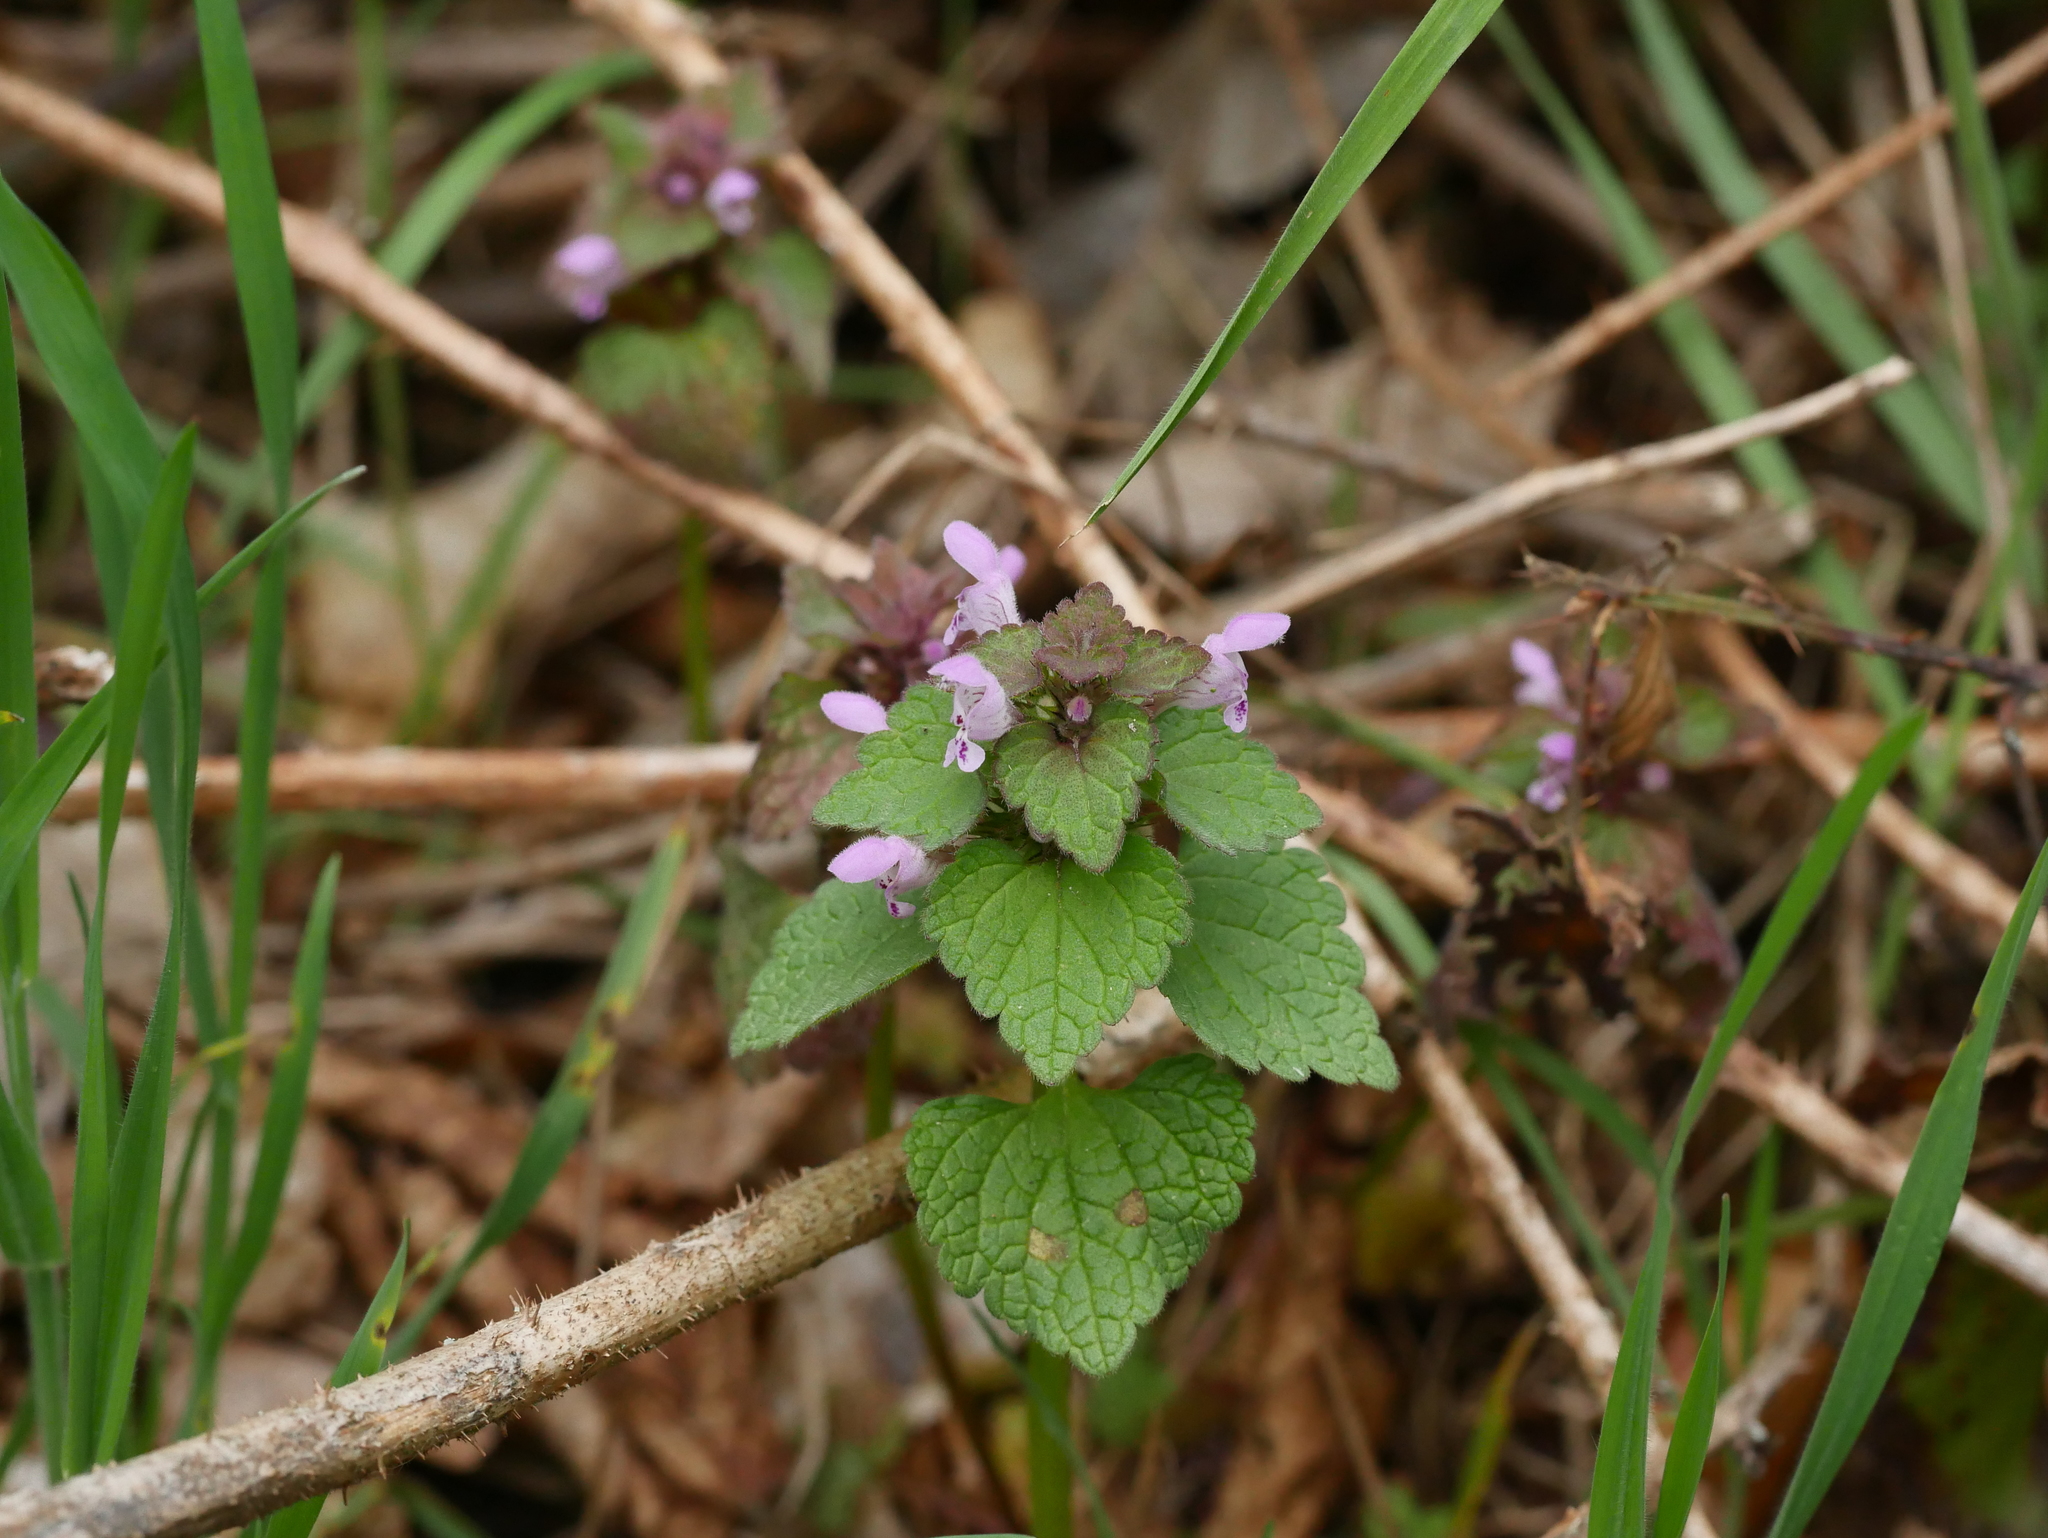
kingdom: Plantae
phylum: Tracheophyta
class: Magnoliopsida
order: Lamiales
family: Lamiaceae
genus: Lamium
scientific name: Lamium purpureum
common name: Red dead-nettle
